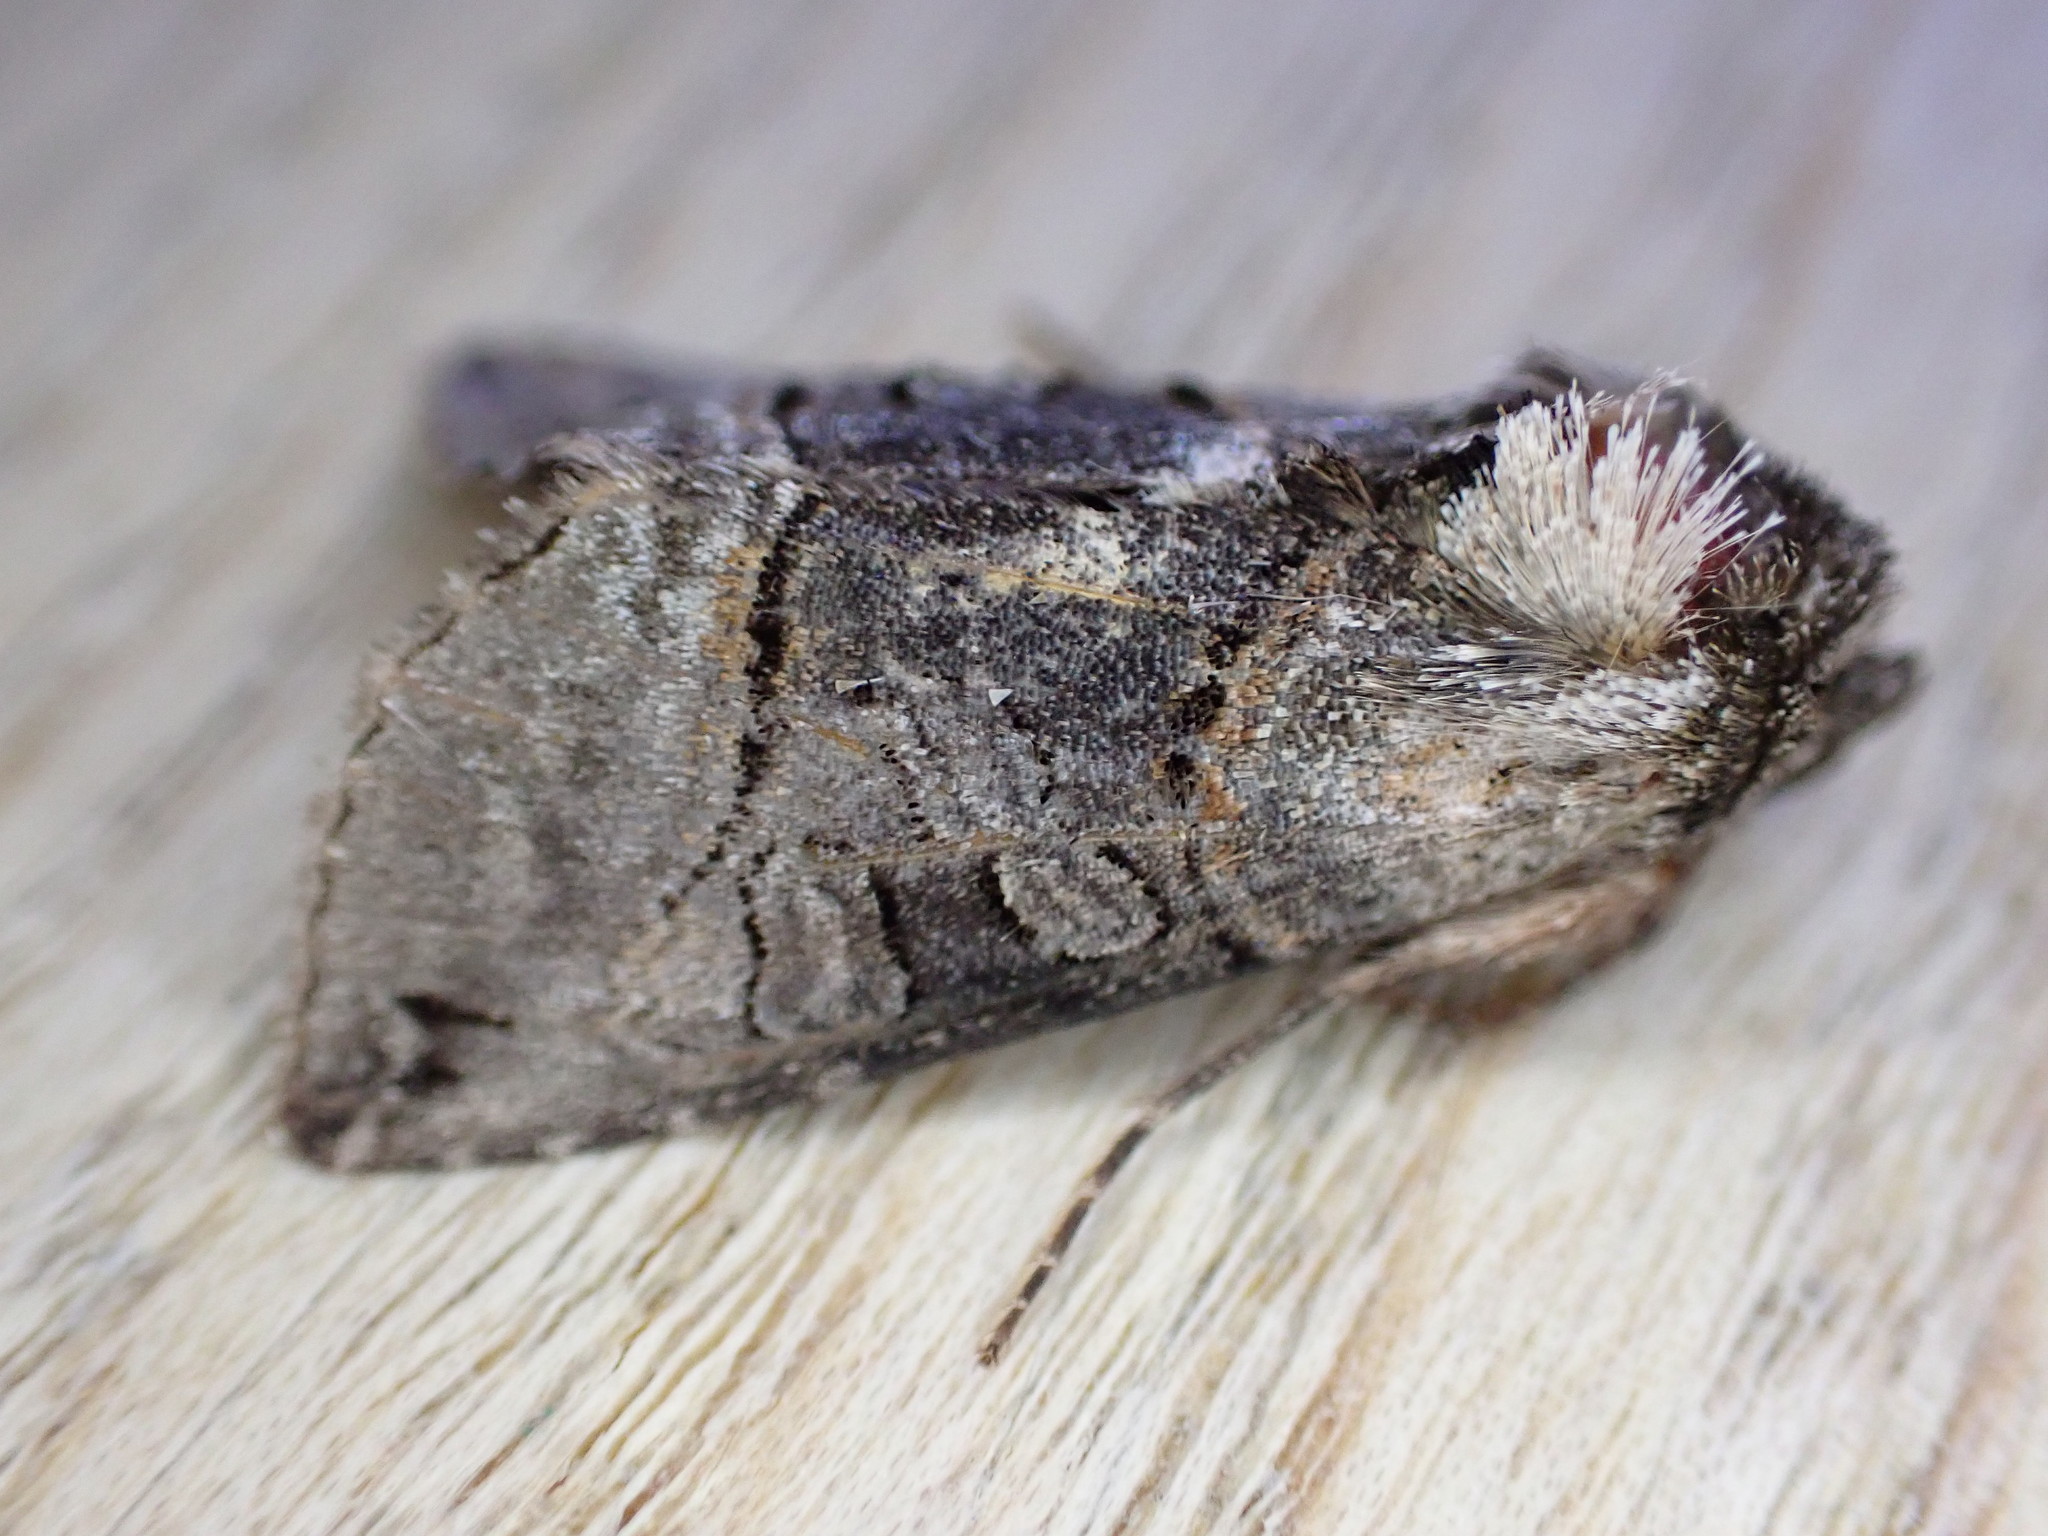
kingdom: Animalia
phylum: Arthropoda
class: Insecta
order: Lepidoptera
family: Noctuidae
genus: Abrostola
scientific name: Abrostola tripartita
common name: Spectacle
